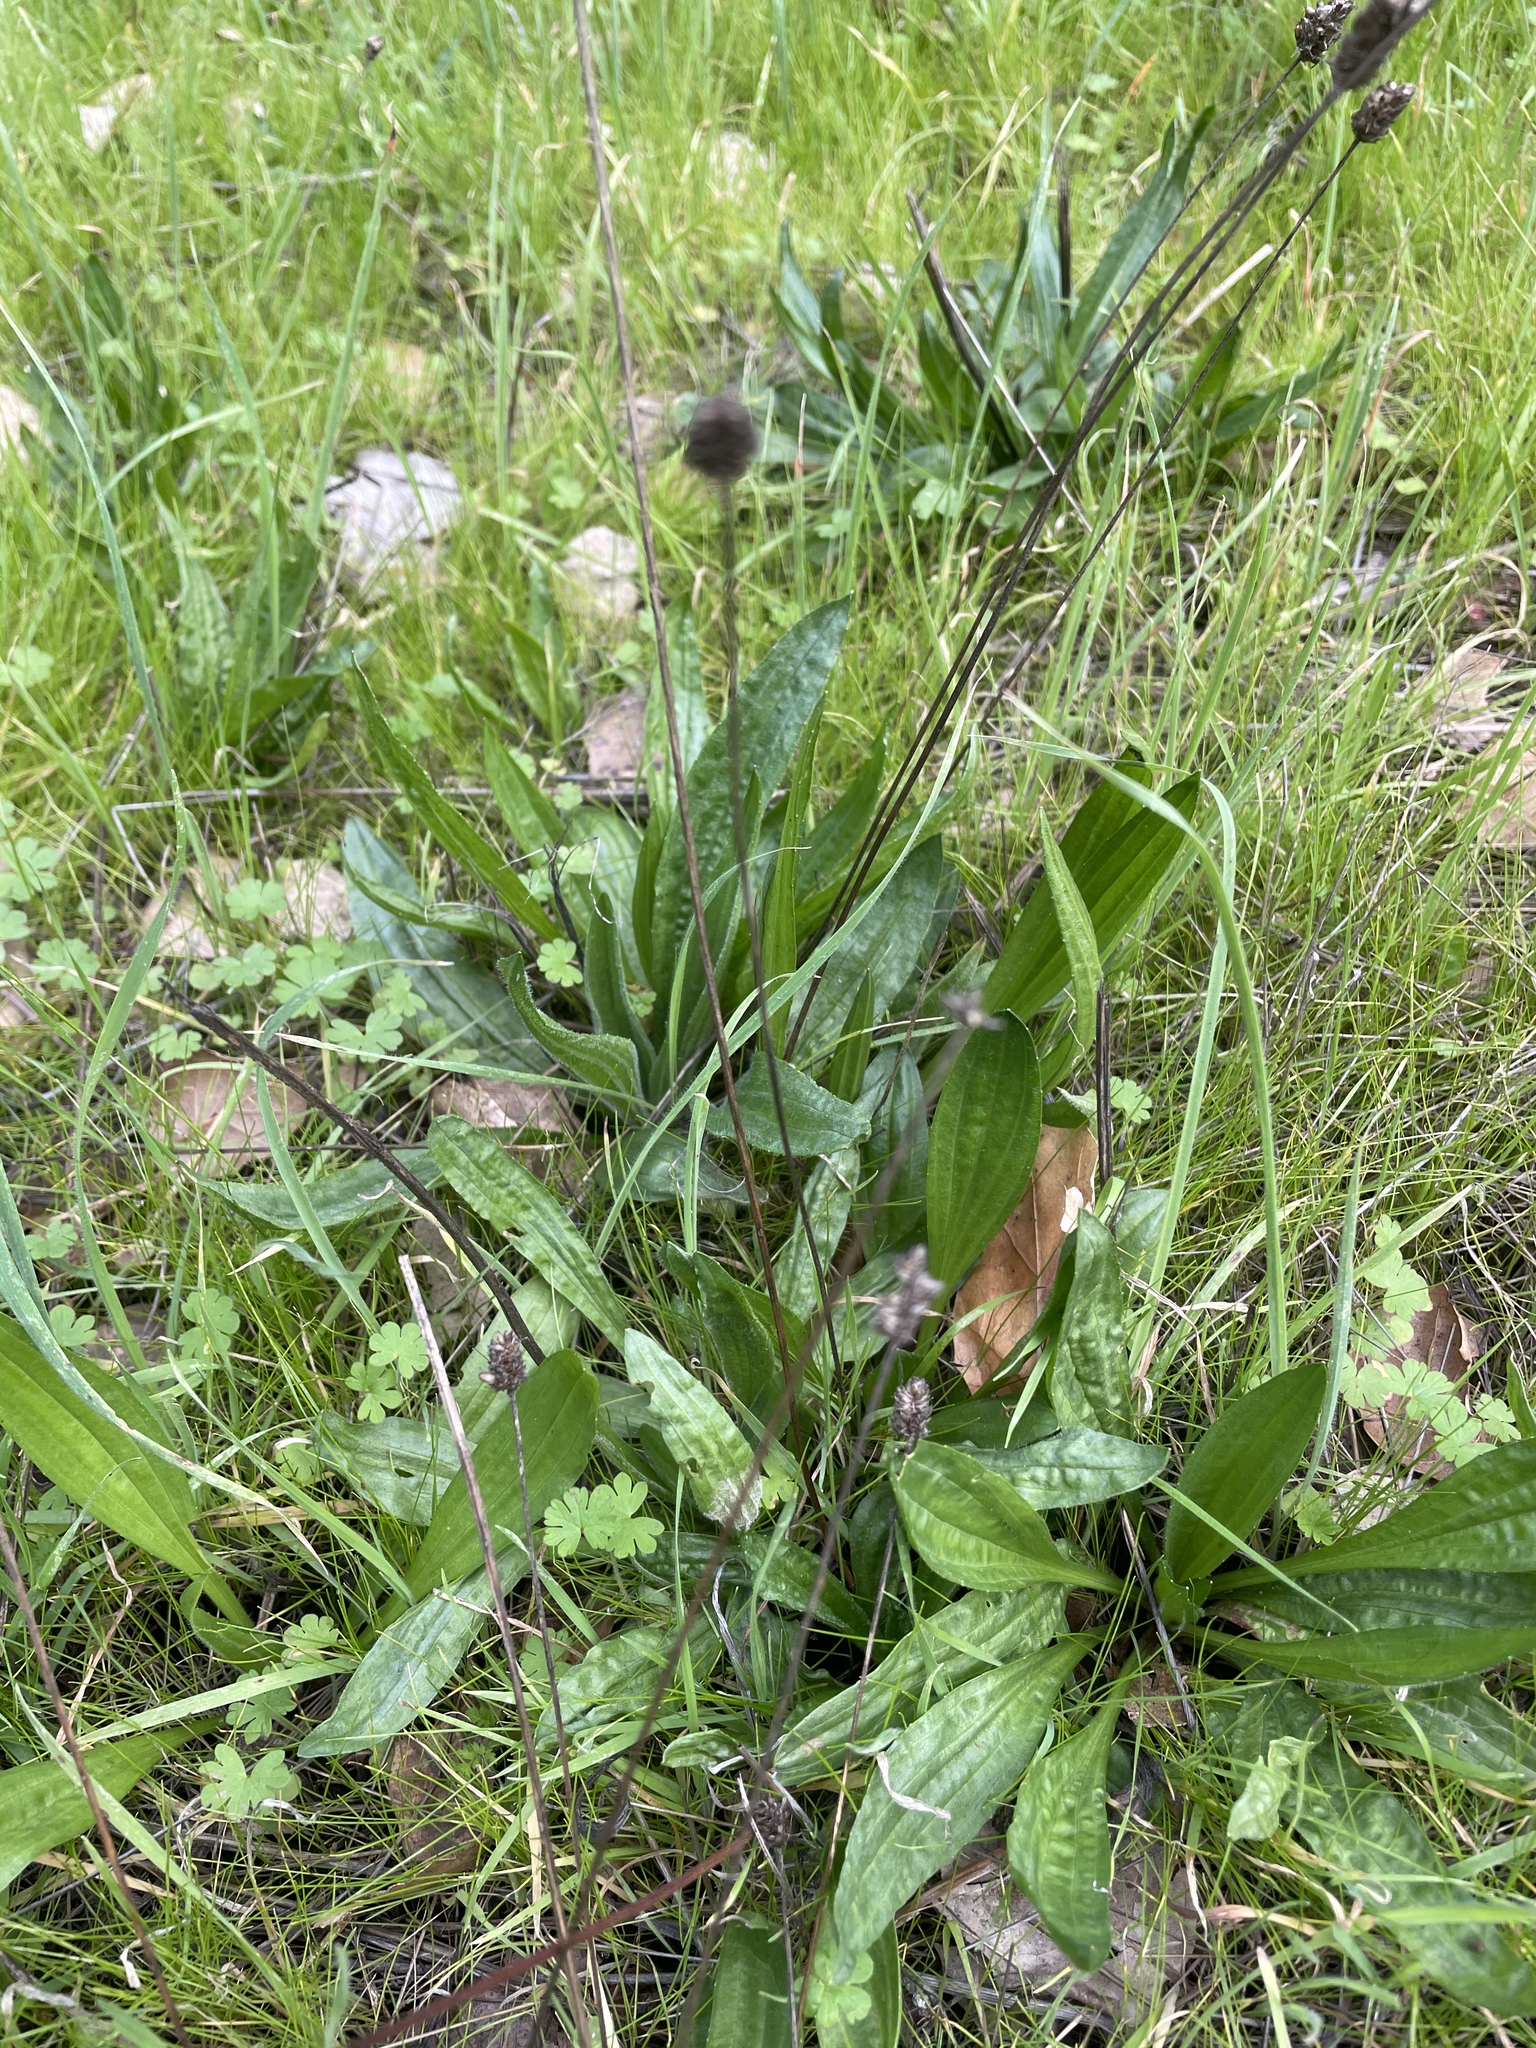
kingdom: Plantae
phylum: Tracheophyta
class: Magnoliopsida
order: Lamiales
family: Plantaginaceae
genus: Plantago
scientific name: Plantago lanceolata
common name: Ribwort plantain
